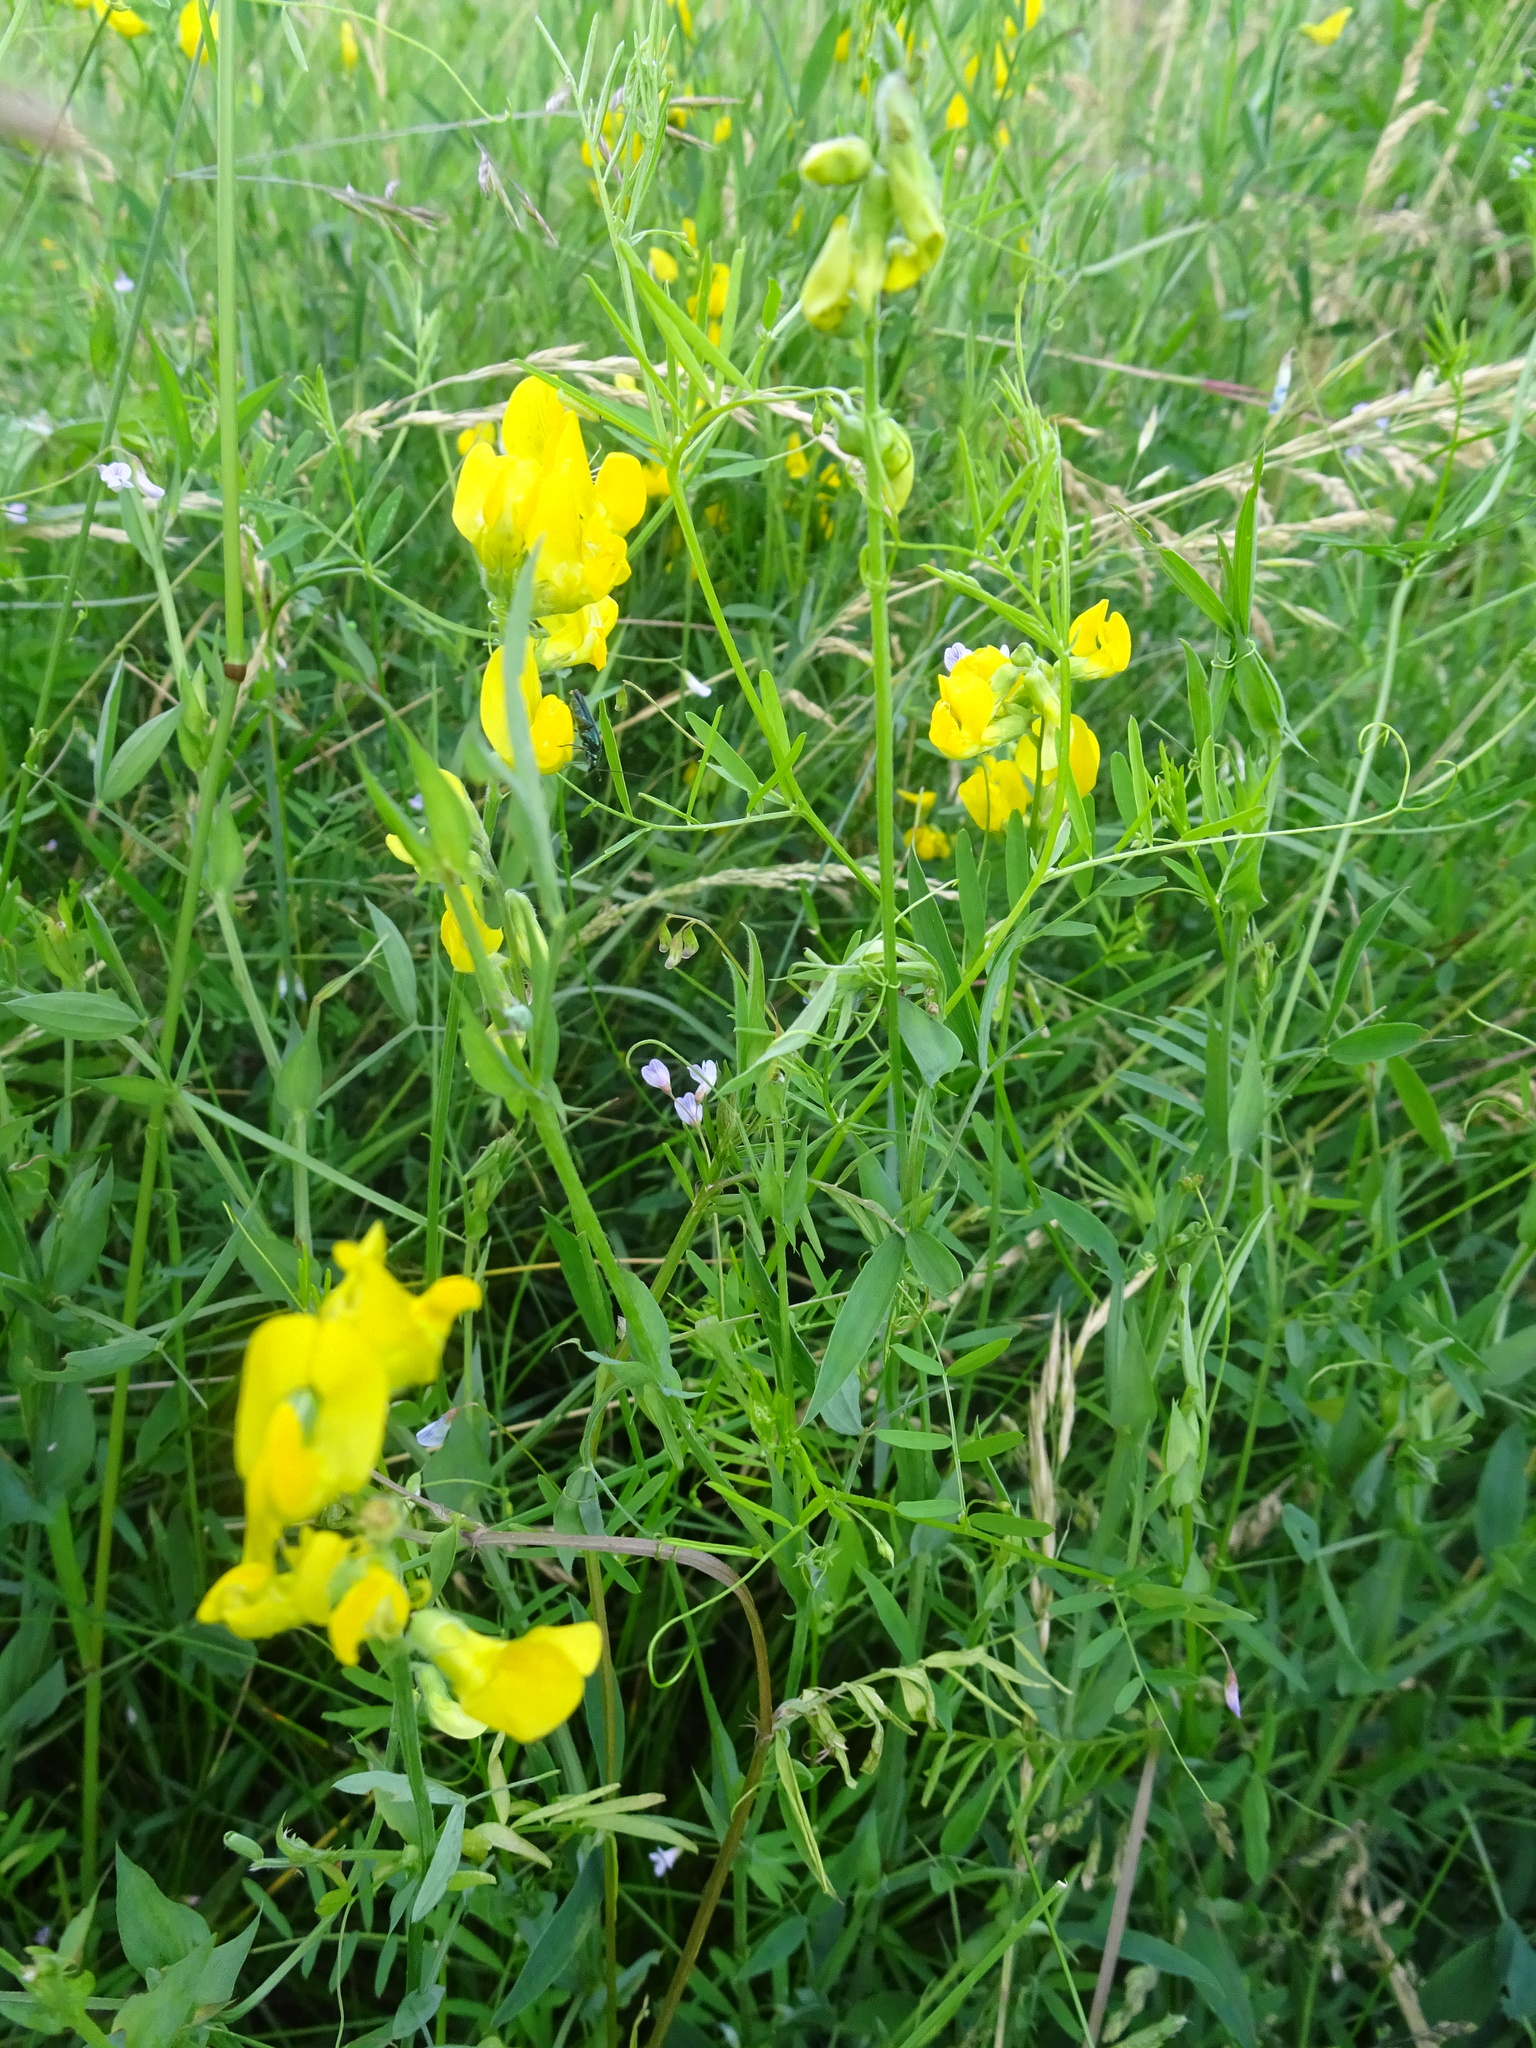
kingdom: Plantae
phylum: Tracheophyta
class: Magnoliopsida
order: Fabales
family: Fabaceae
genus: Lathyrus
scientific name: Lathyrus pratensis
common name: Meadow vetchling
